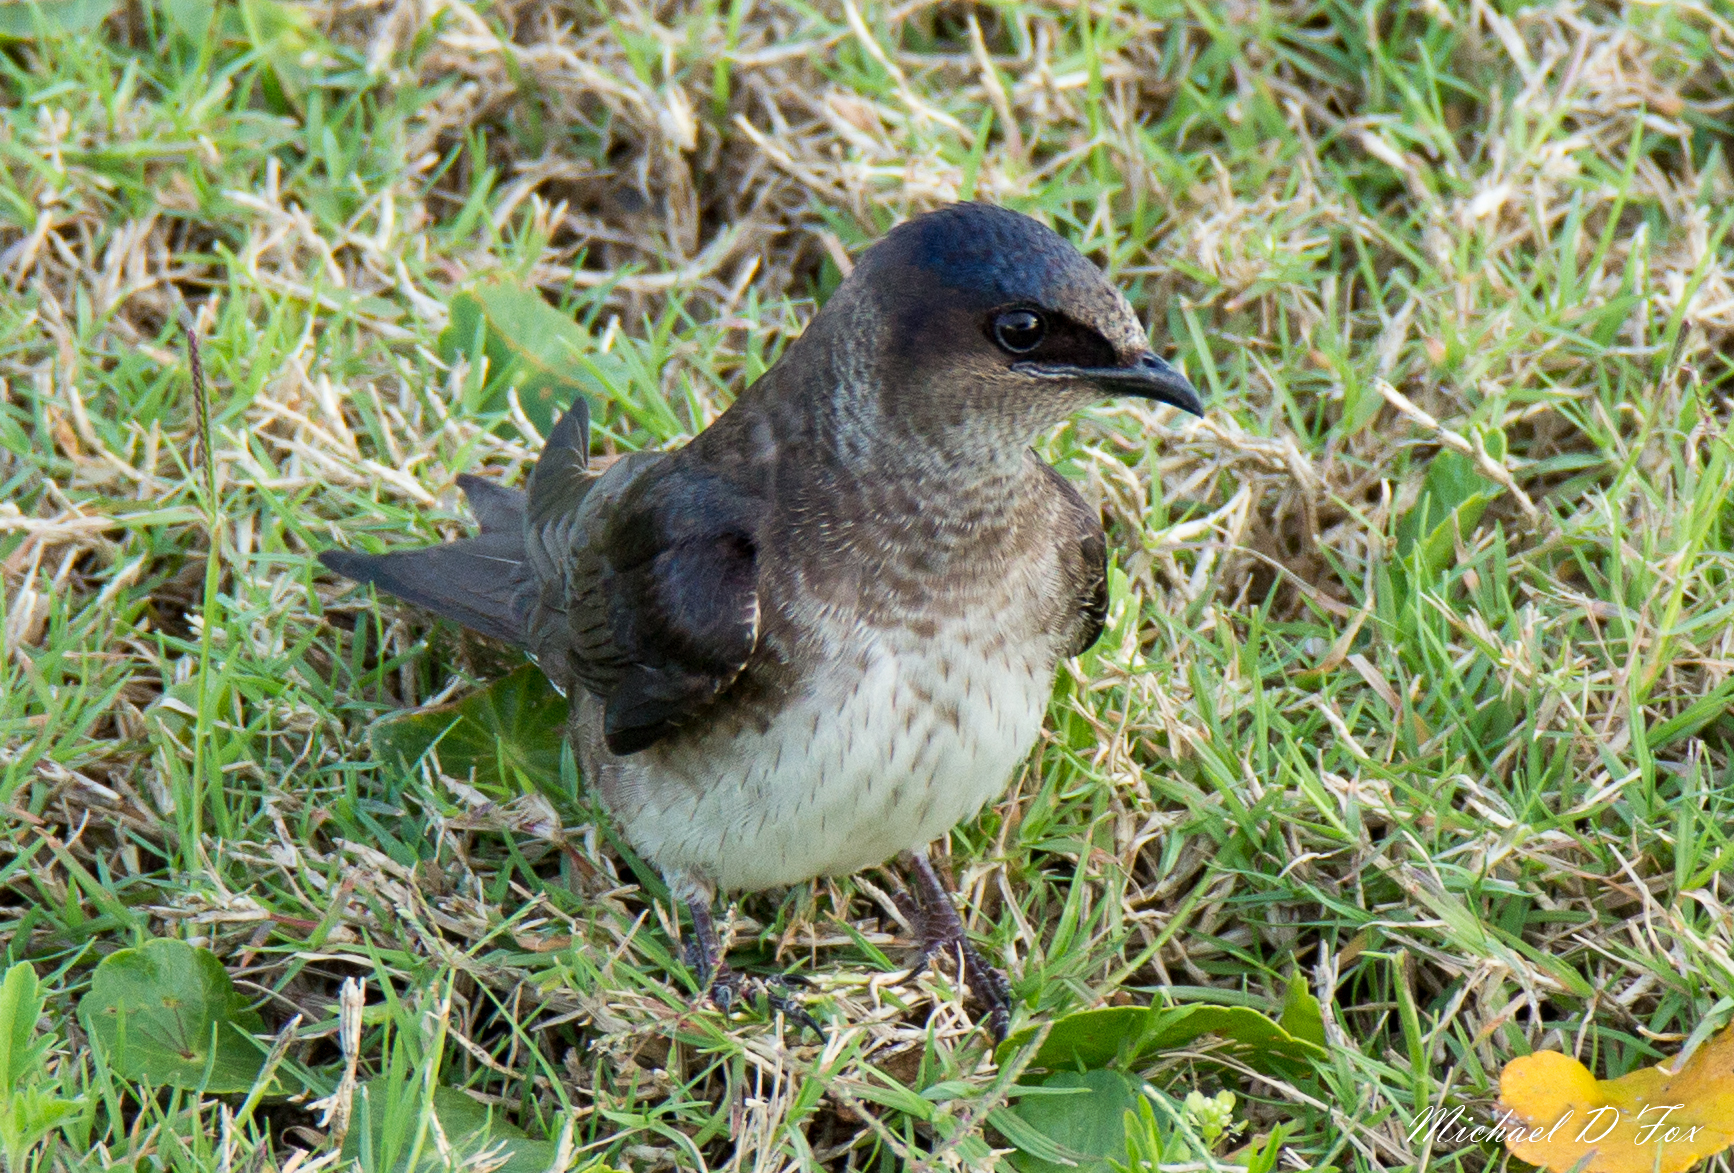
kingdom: Animalia
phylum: Chordata
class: Aves
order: Passeriformes
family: Hirundinidae
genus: Progne
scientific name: Progne subis
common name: Purple martin
